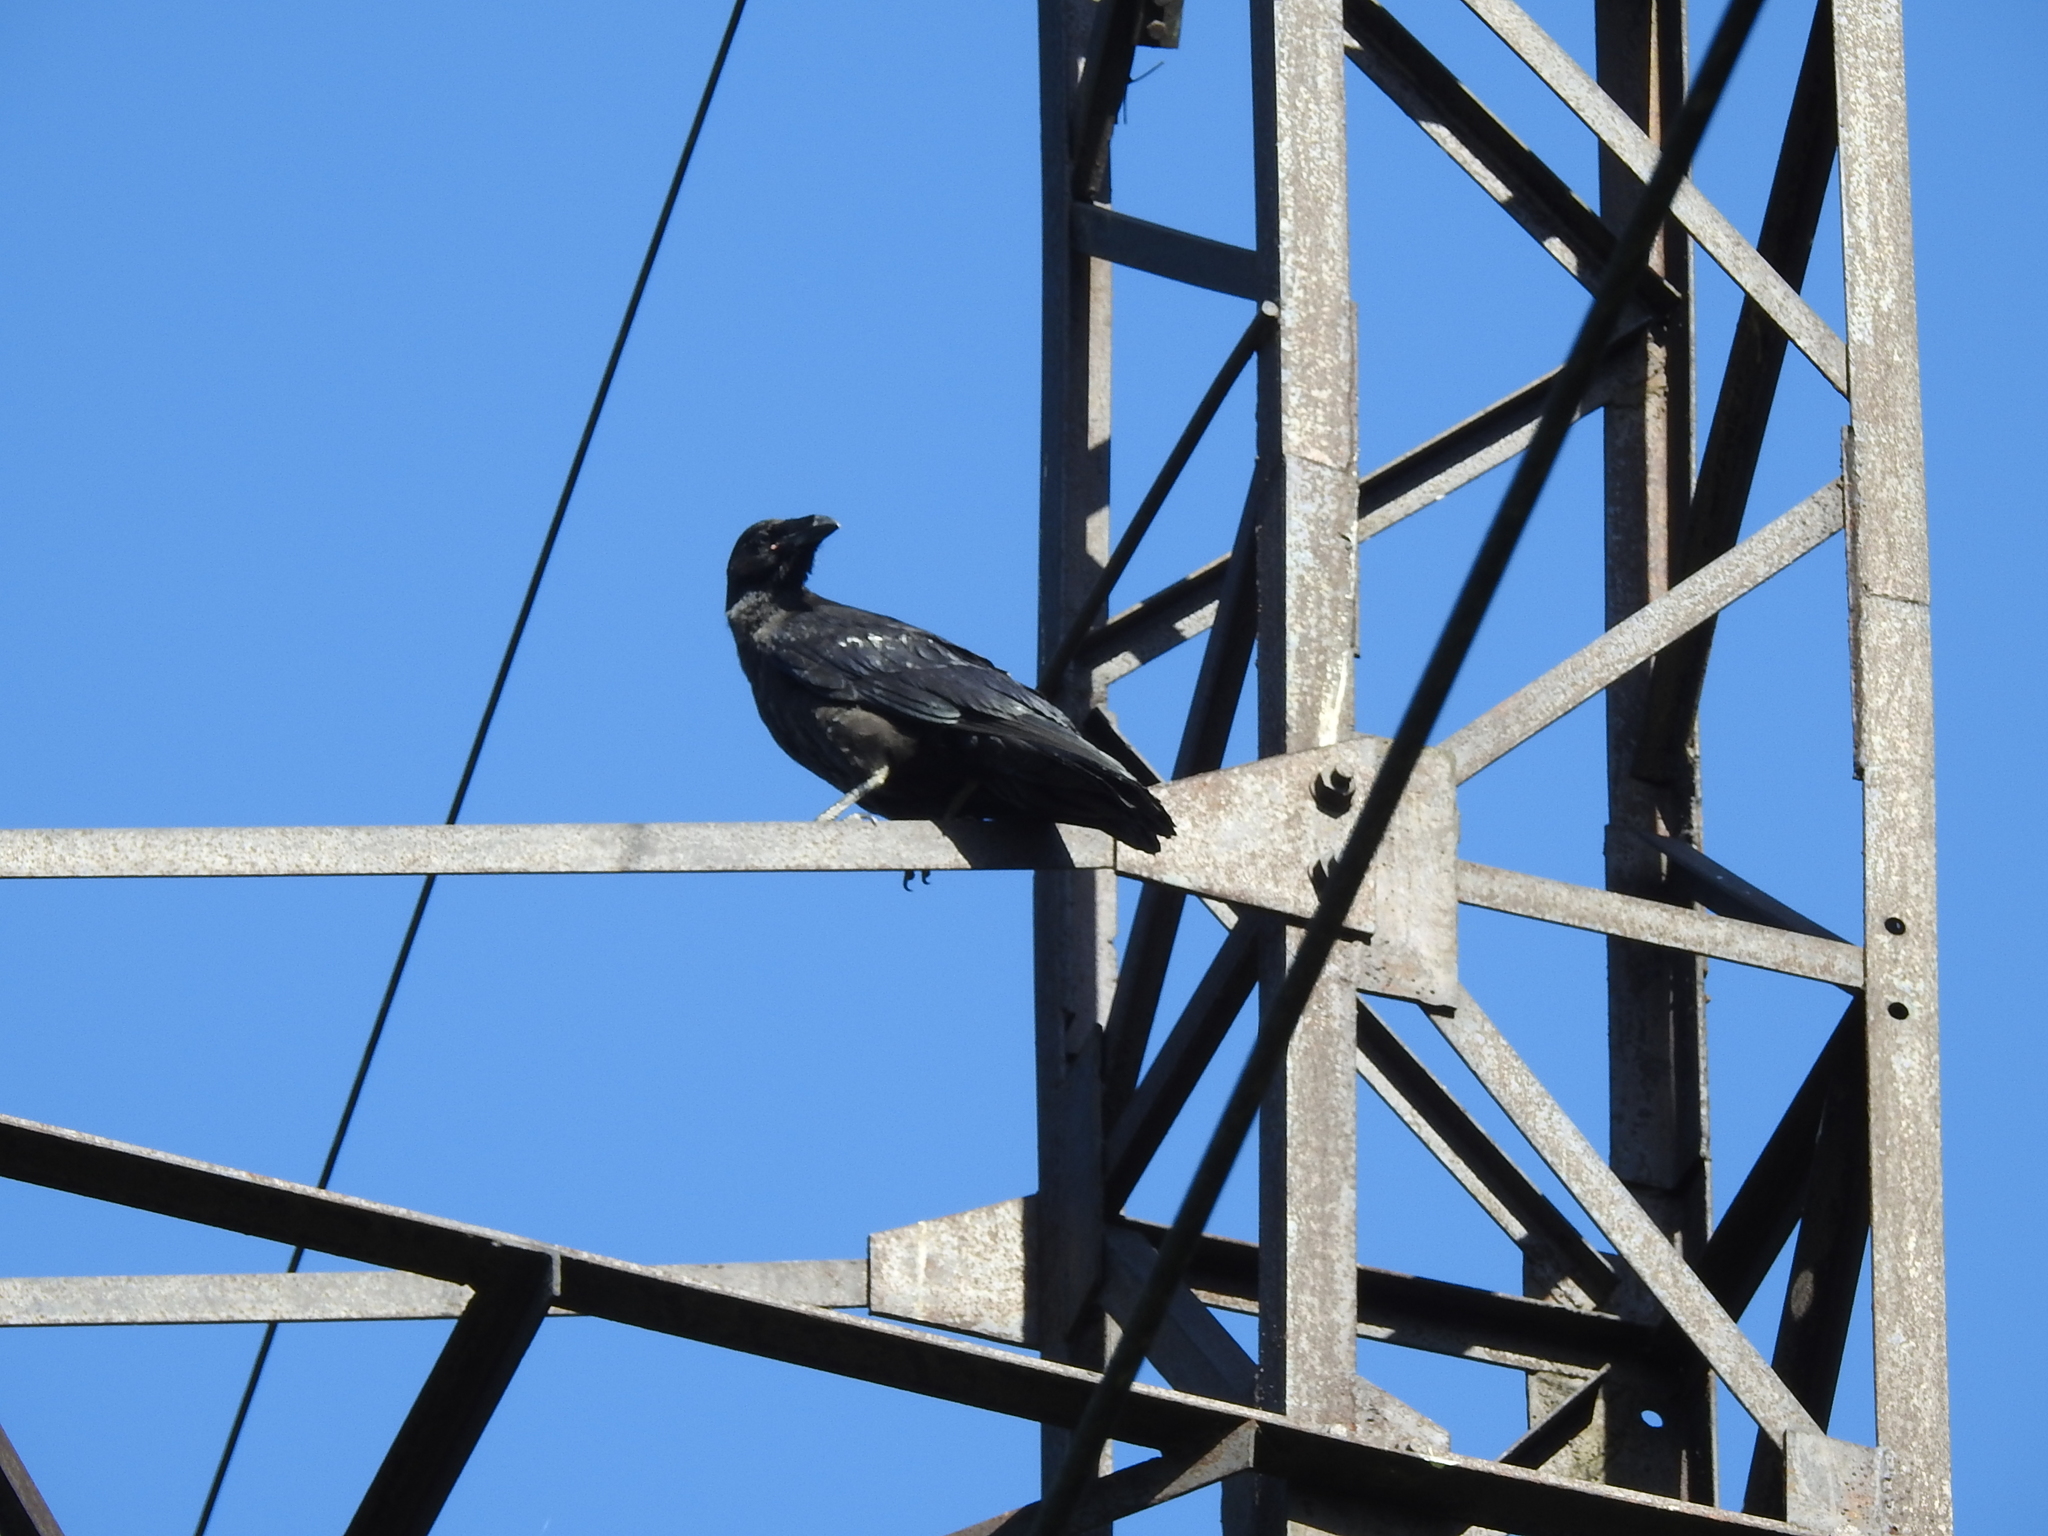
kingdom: Animalia
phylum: Chordata
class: Aves
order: Passeriformes
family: Corvidae
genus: Corvus
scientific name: Corvus corax
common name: Common raven
